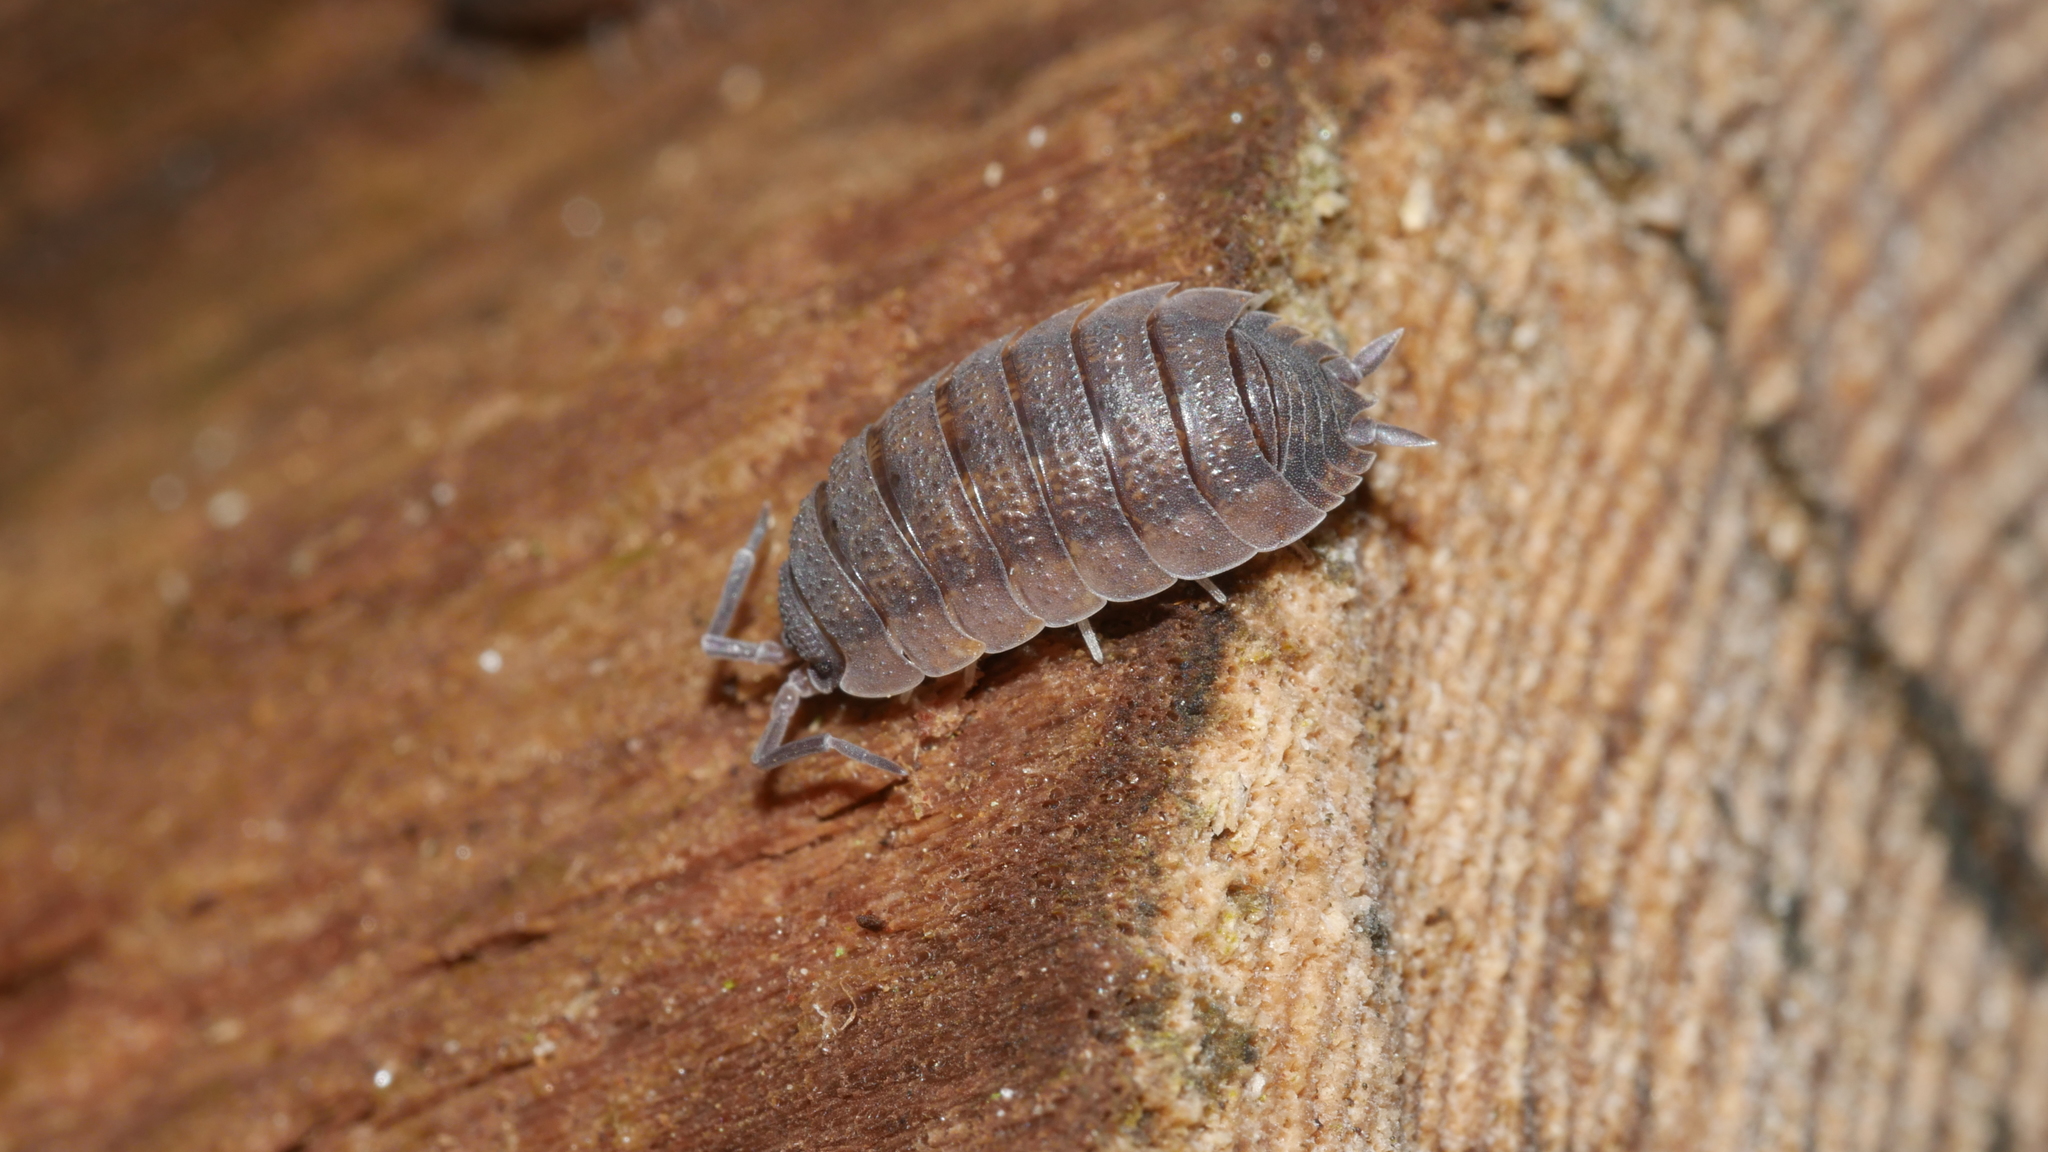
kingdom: Animalia
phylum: Arthropoda
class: Malacostraca
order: Isopoda
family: Porcellionidae
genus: Porcellio
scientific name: Porcellio scaber
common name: Common rough woodlouse
